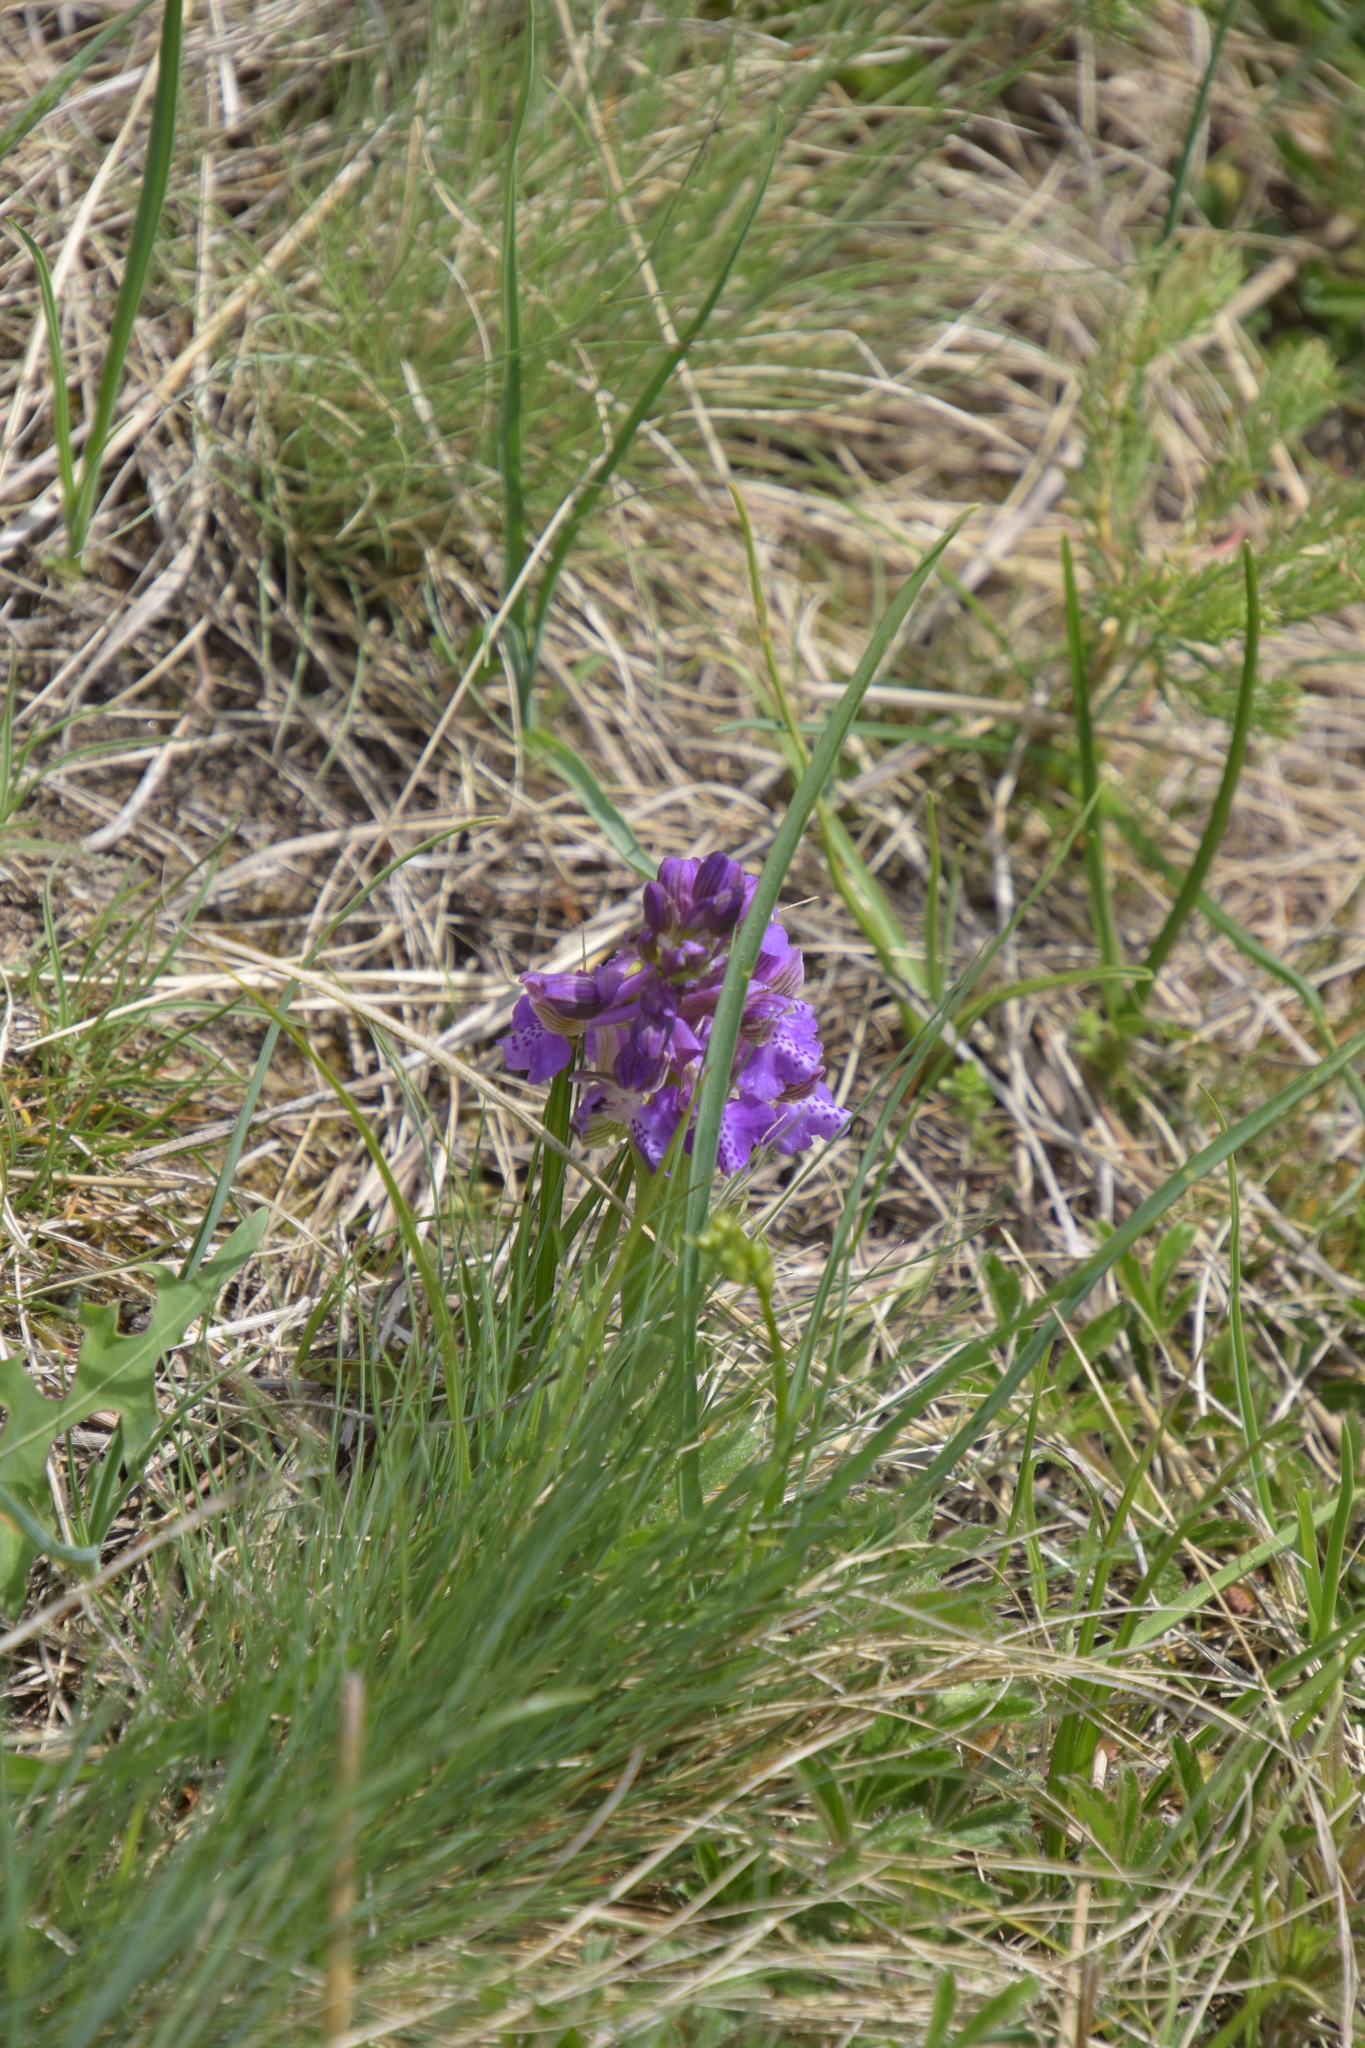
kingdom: Plantae
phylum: Tracheophyta
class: Liliopsida
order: Asparagales
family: Orchidaceae
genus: Anacamptis
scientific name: Anacamptis morio
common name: Green-winged orchid
